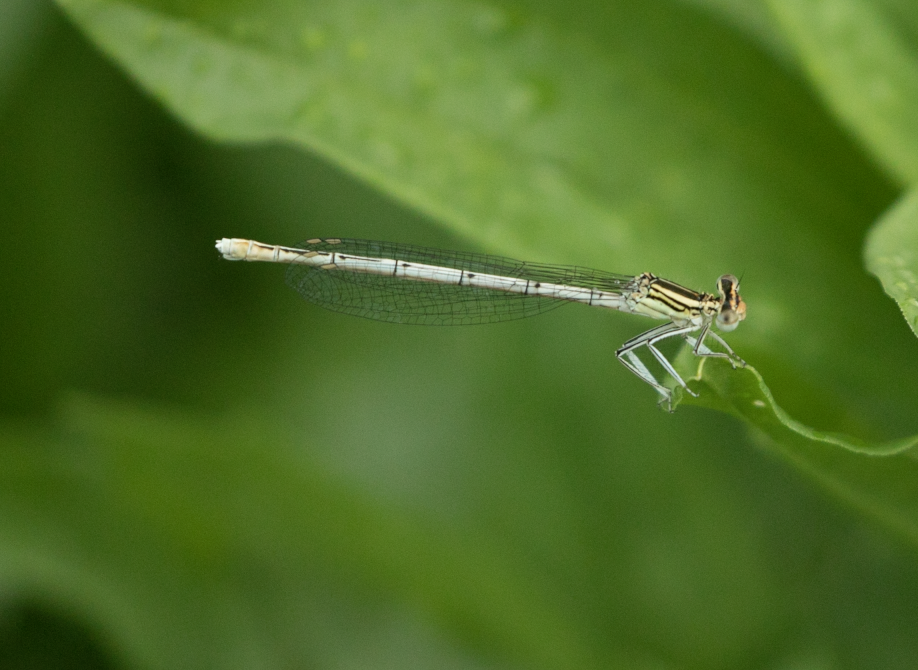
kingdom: Animalia
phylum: Arthropoda
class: Insecta
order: Odonata
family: Platycnemididae
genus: Platycnemis
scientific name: Platycnemis pennipes
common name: White-legged damselfly
